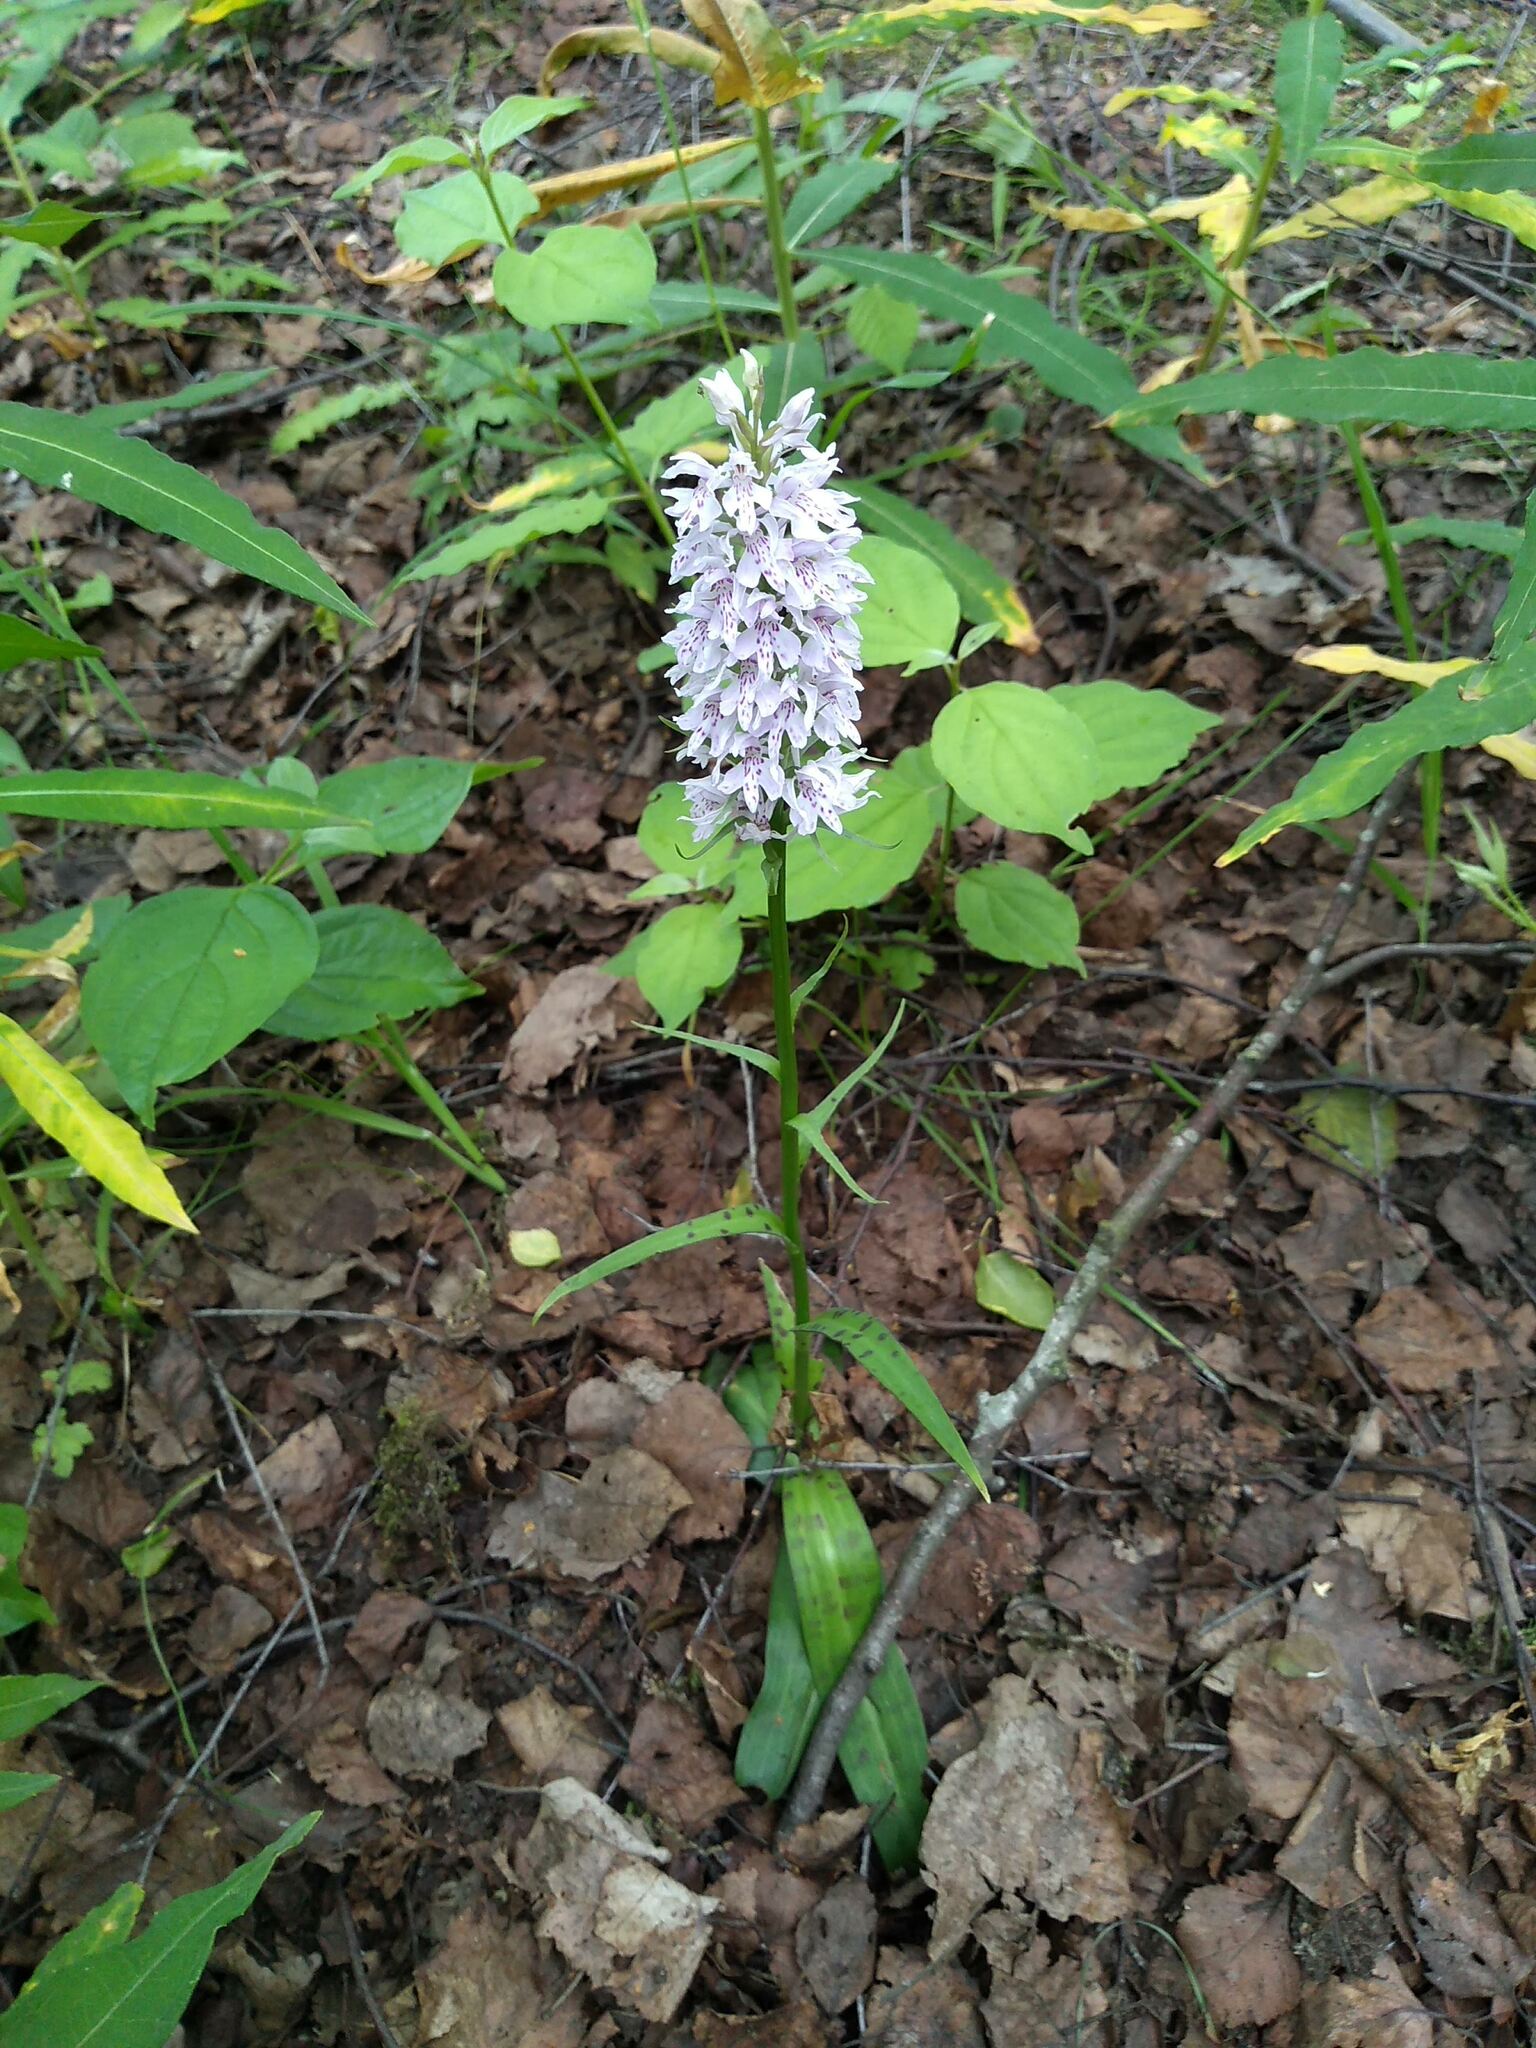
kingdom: Plantae
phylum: Tracheophyta
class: Liliopsida
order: Asparagales
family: Orchidaceae
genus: Dactylorhiza
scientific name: Dactylorhiza maculata
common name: Heath spotted-orchid
